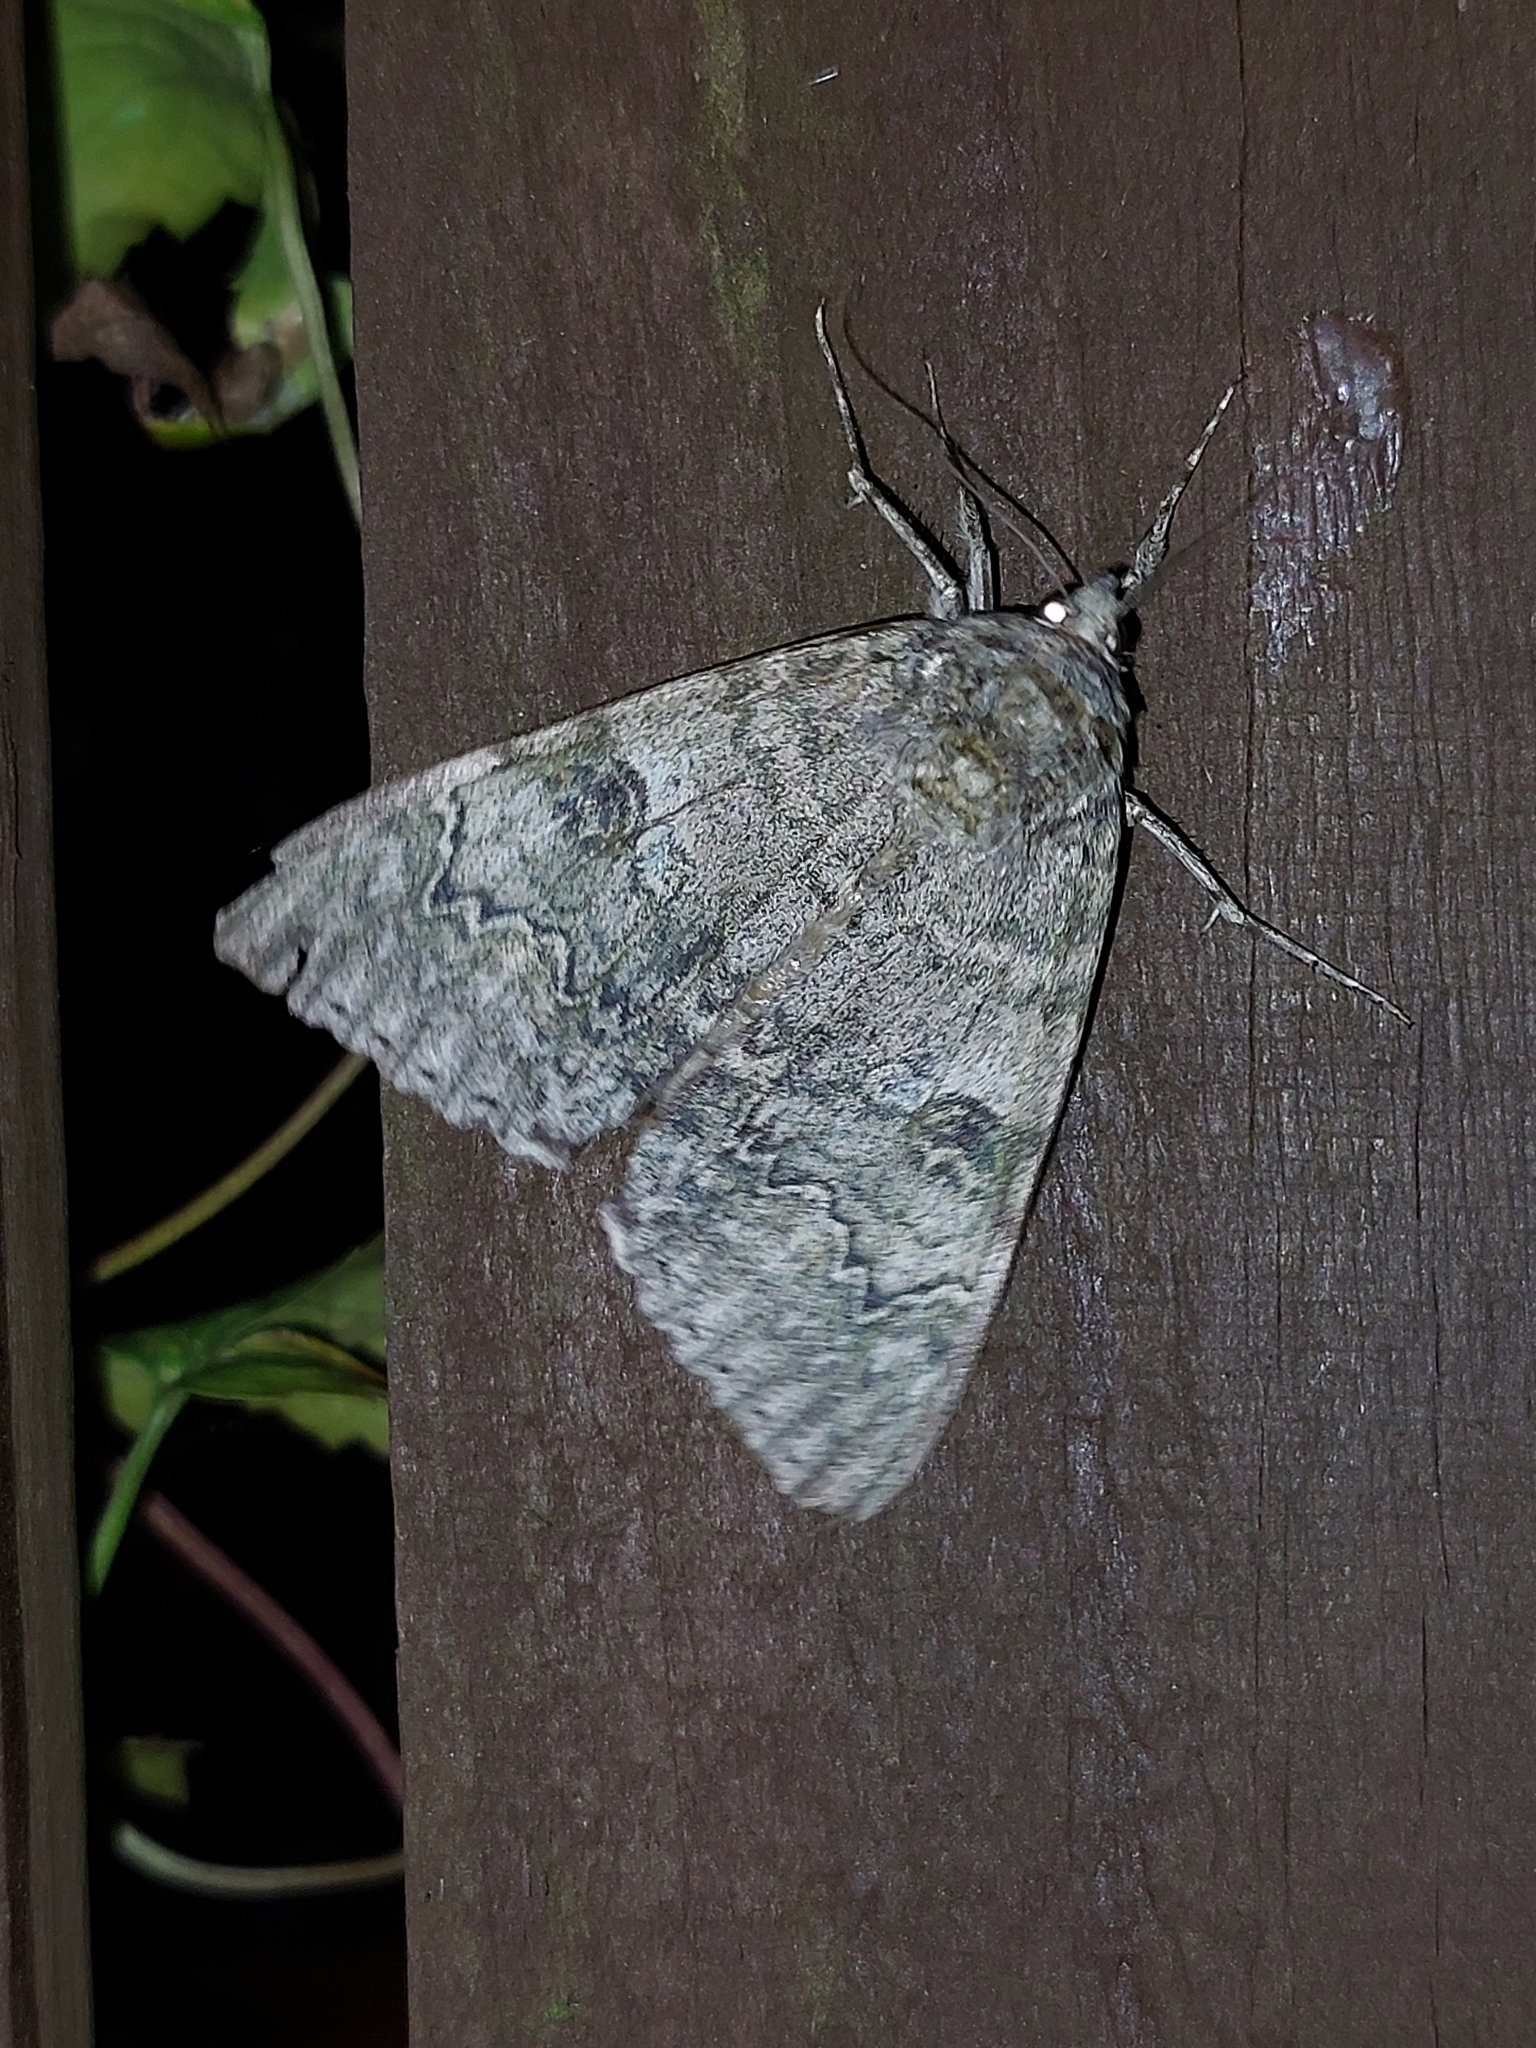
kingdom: Animalia
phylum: Arthropoda
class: Insecta
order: Lepidoptera
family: Erebidae
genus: Catocala
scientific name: Catocala nupta
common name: Red underwing
